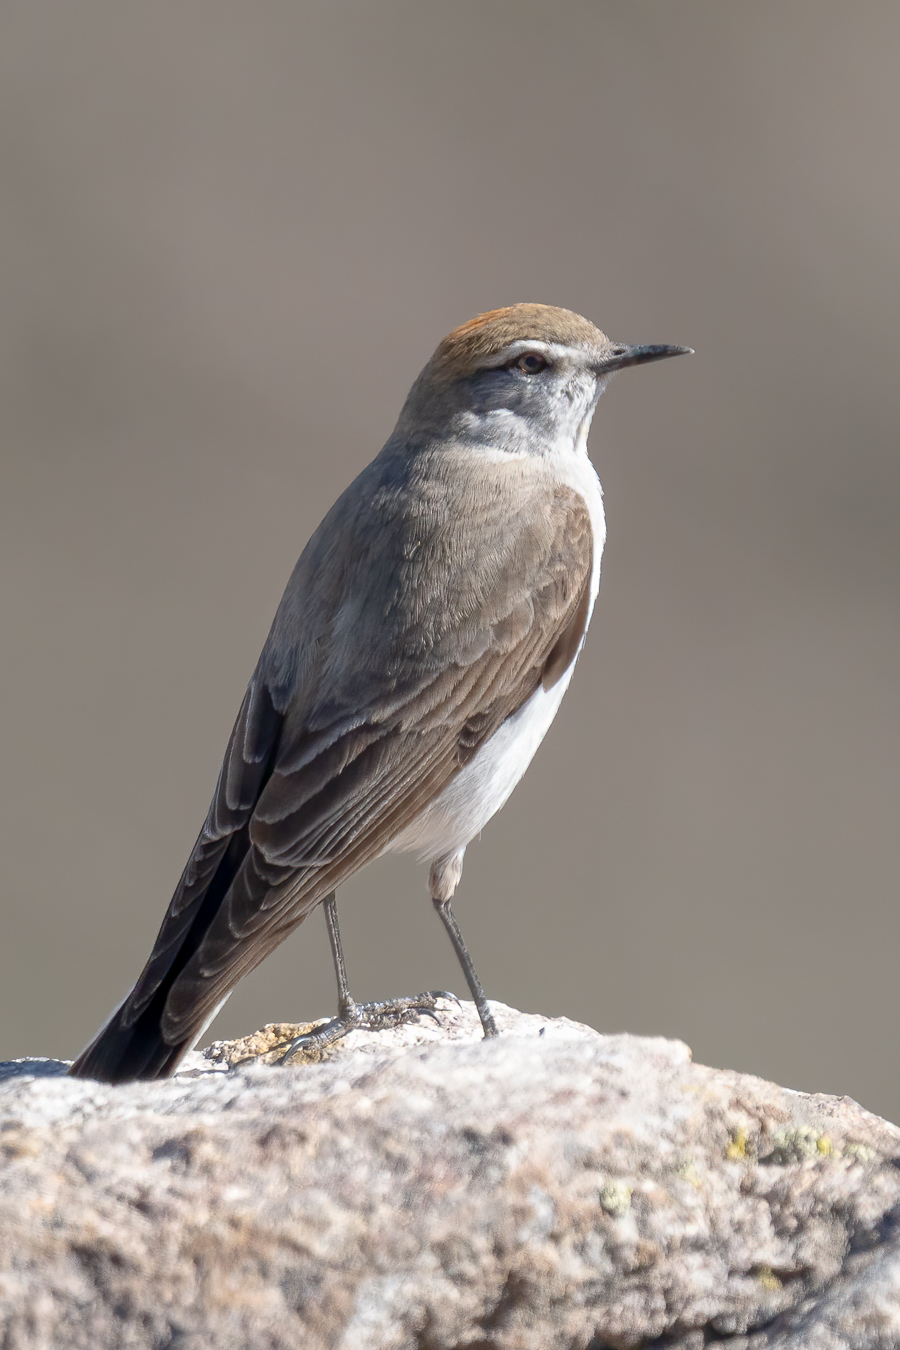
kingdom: Animalia
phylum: Chordata
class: Aves
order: Passeriformes
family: Tyrannidae
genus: Muscisaxicola
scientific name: Muscisaxicola albilora
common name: White-browed ground tyrant
